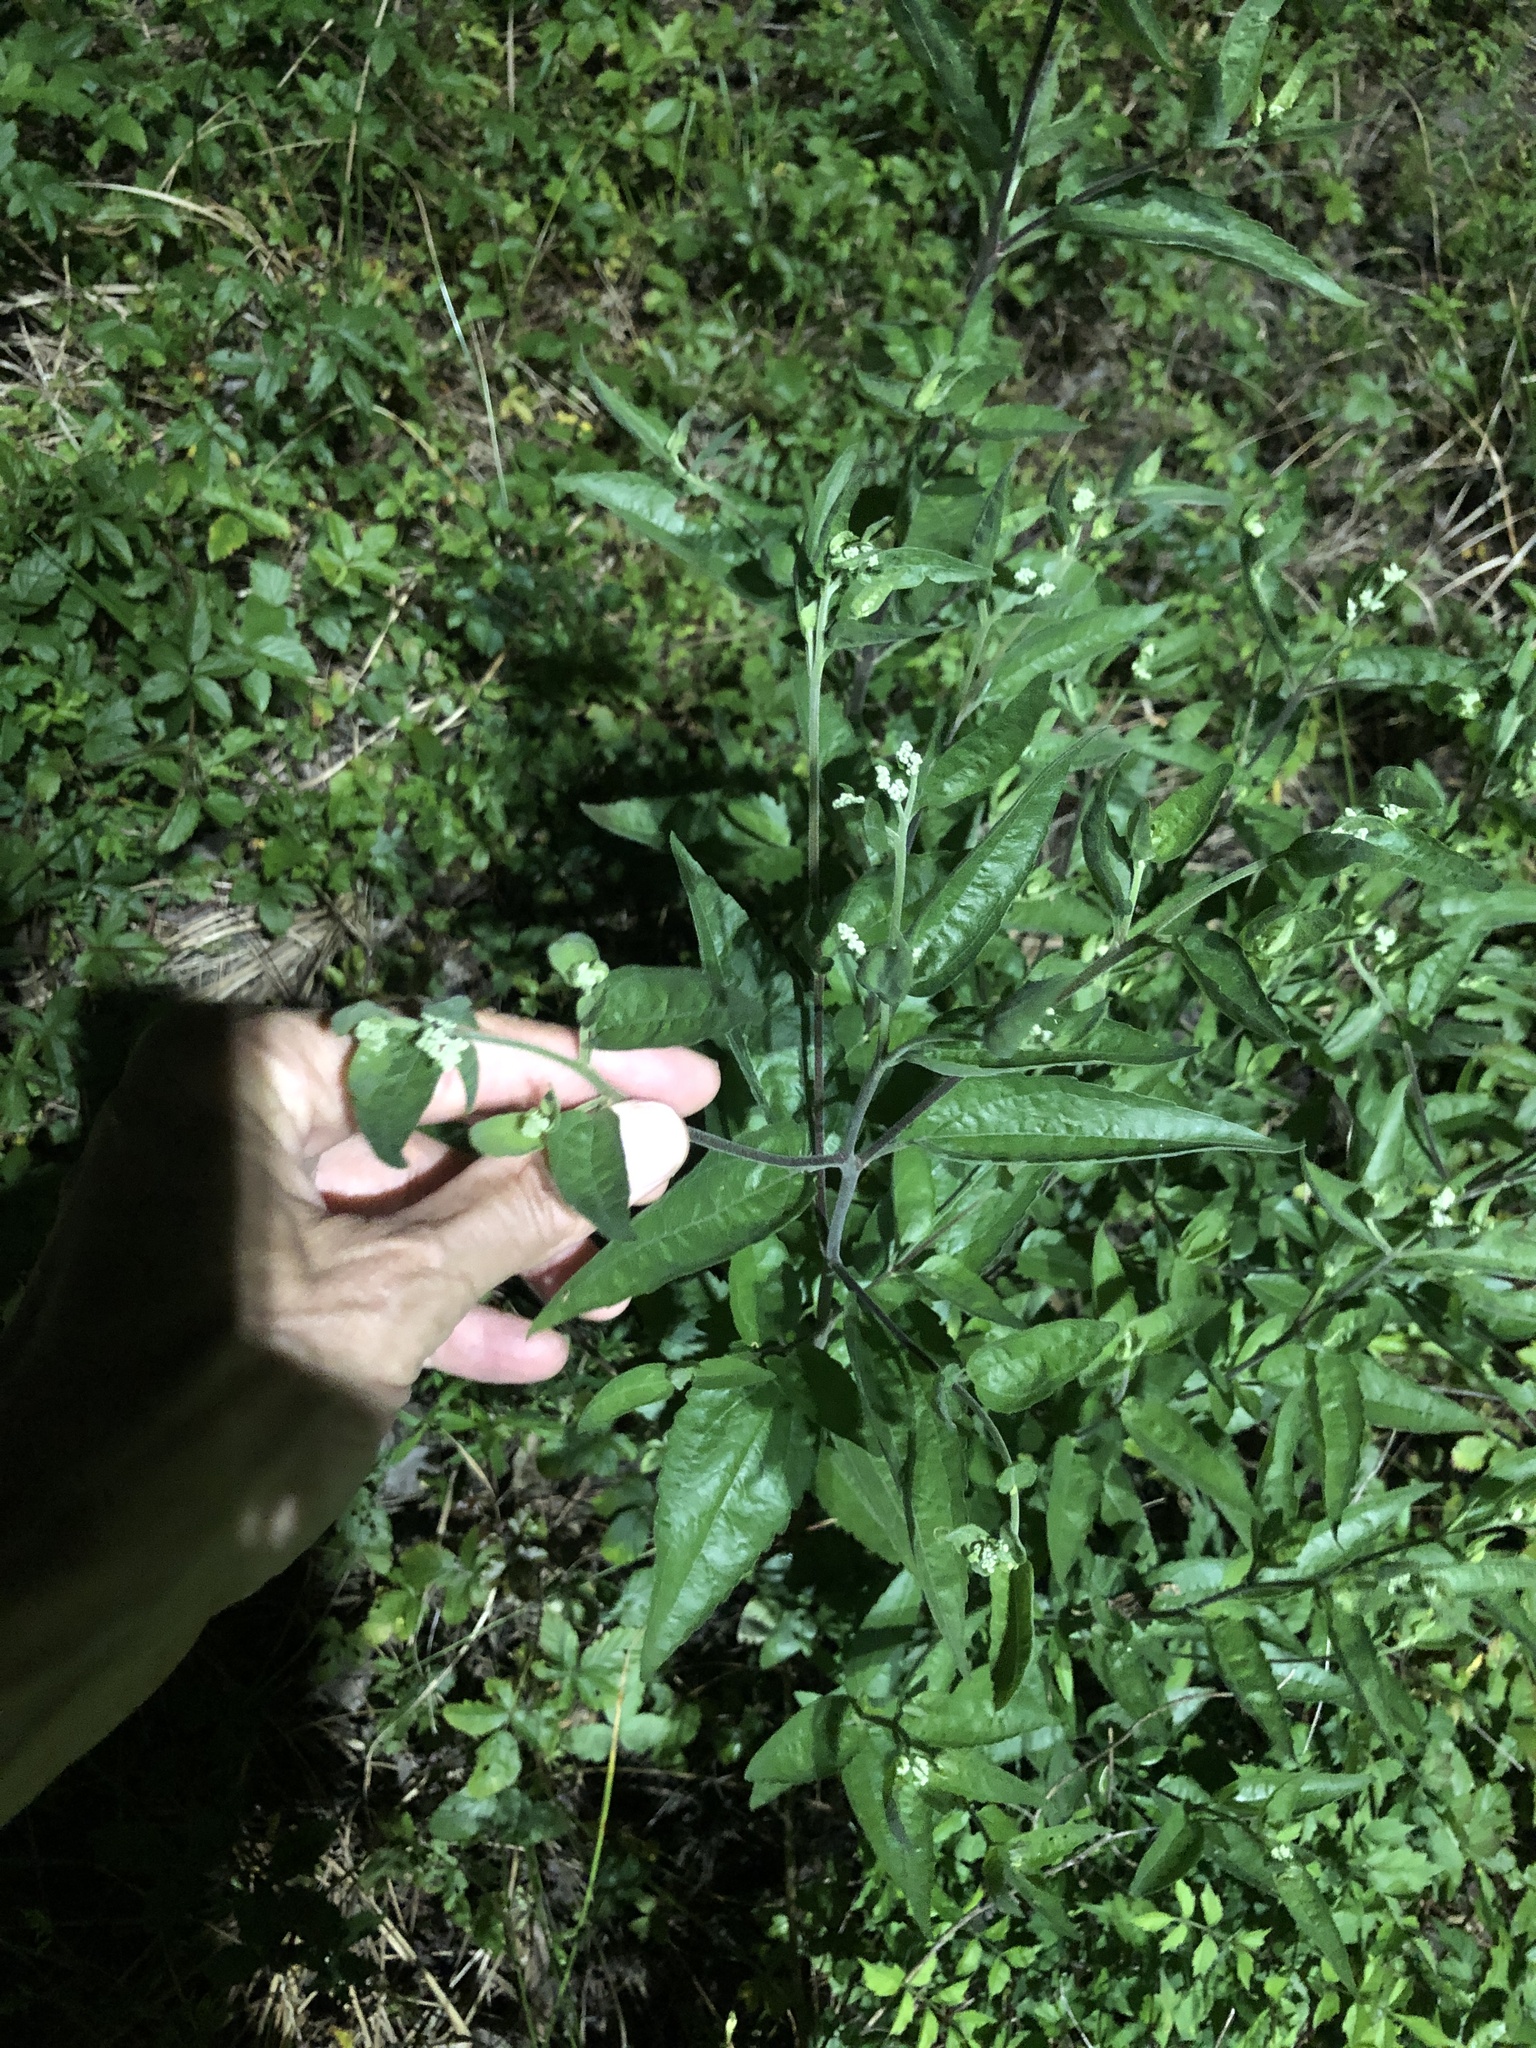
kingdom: Plantae
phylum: Tracheophyta
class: Magnoliopsida
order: Asterales
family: Asteraceae
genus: Eupatorium
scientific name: Eupatorium serotinum
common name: Late boneset
